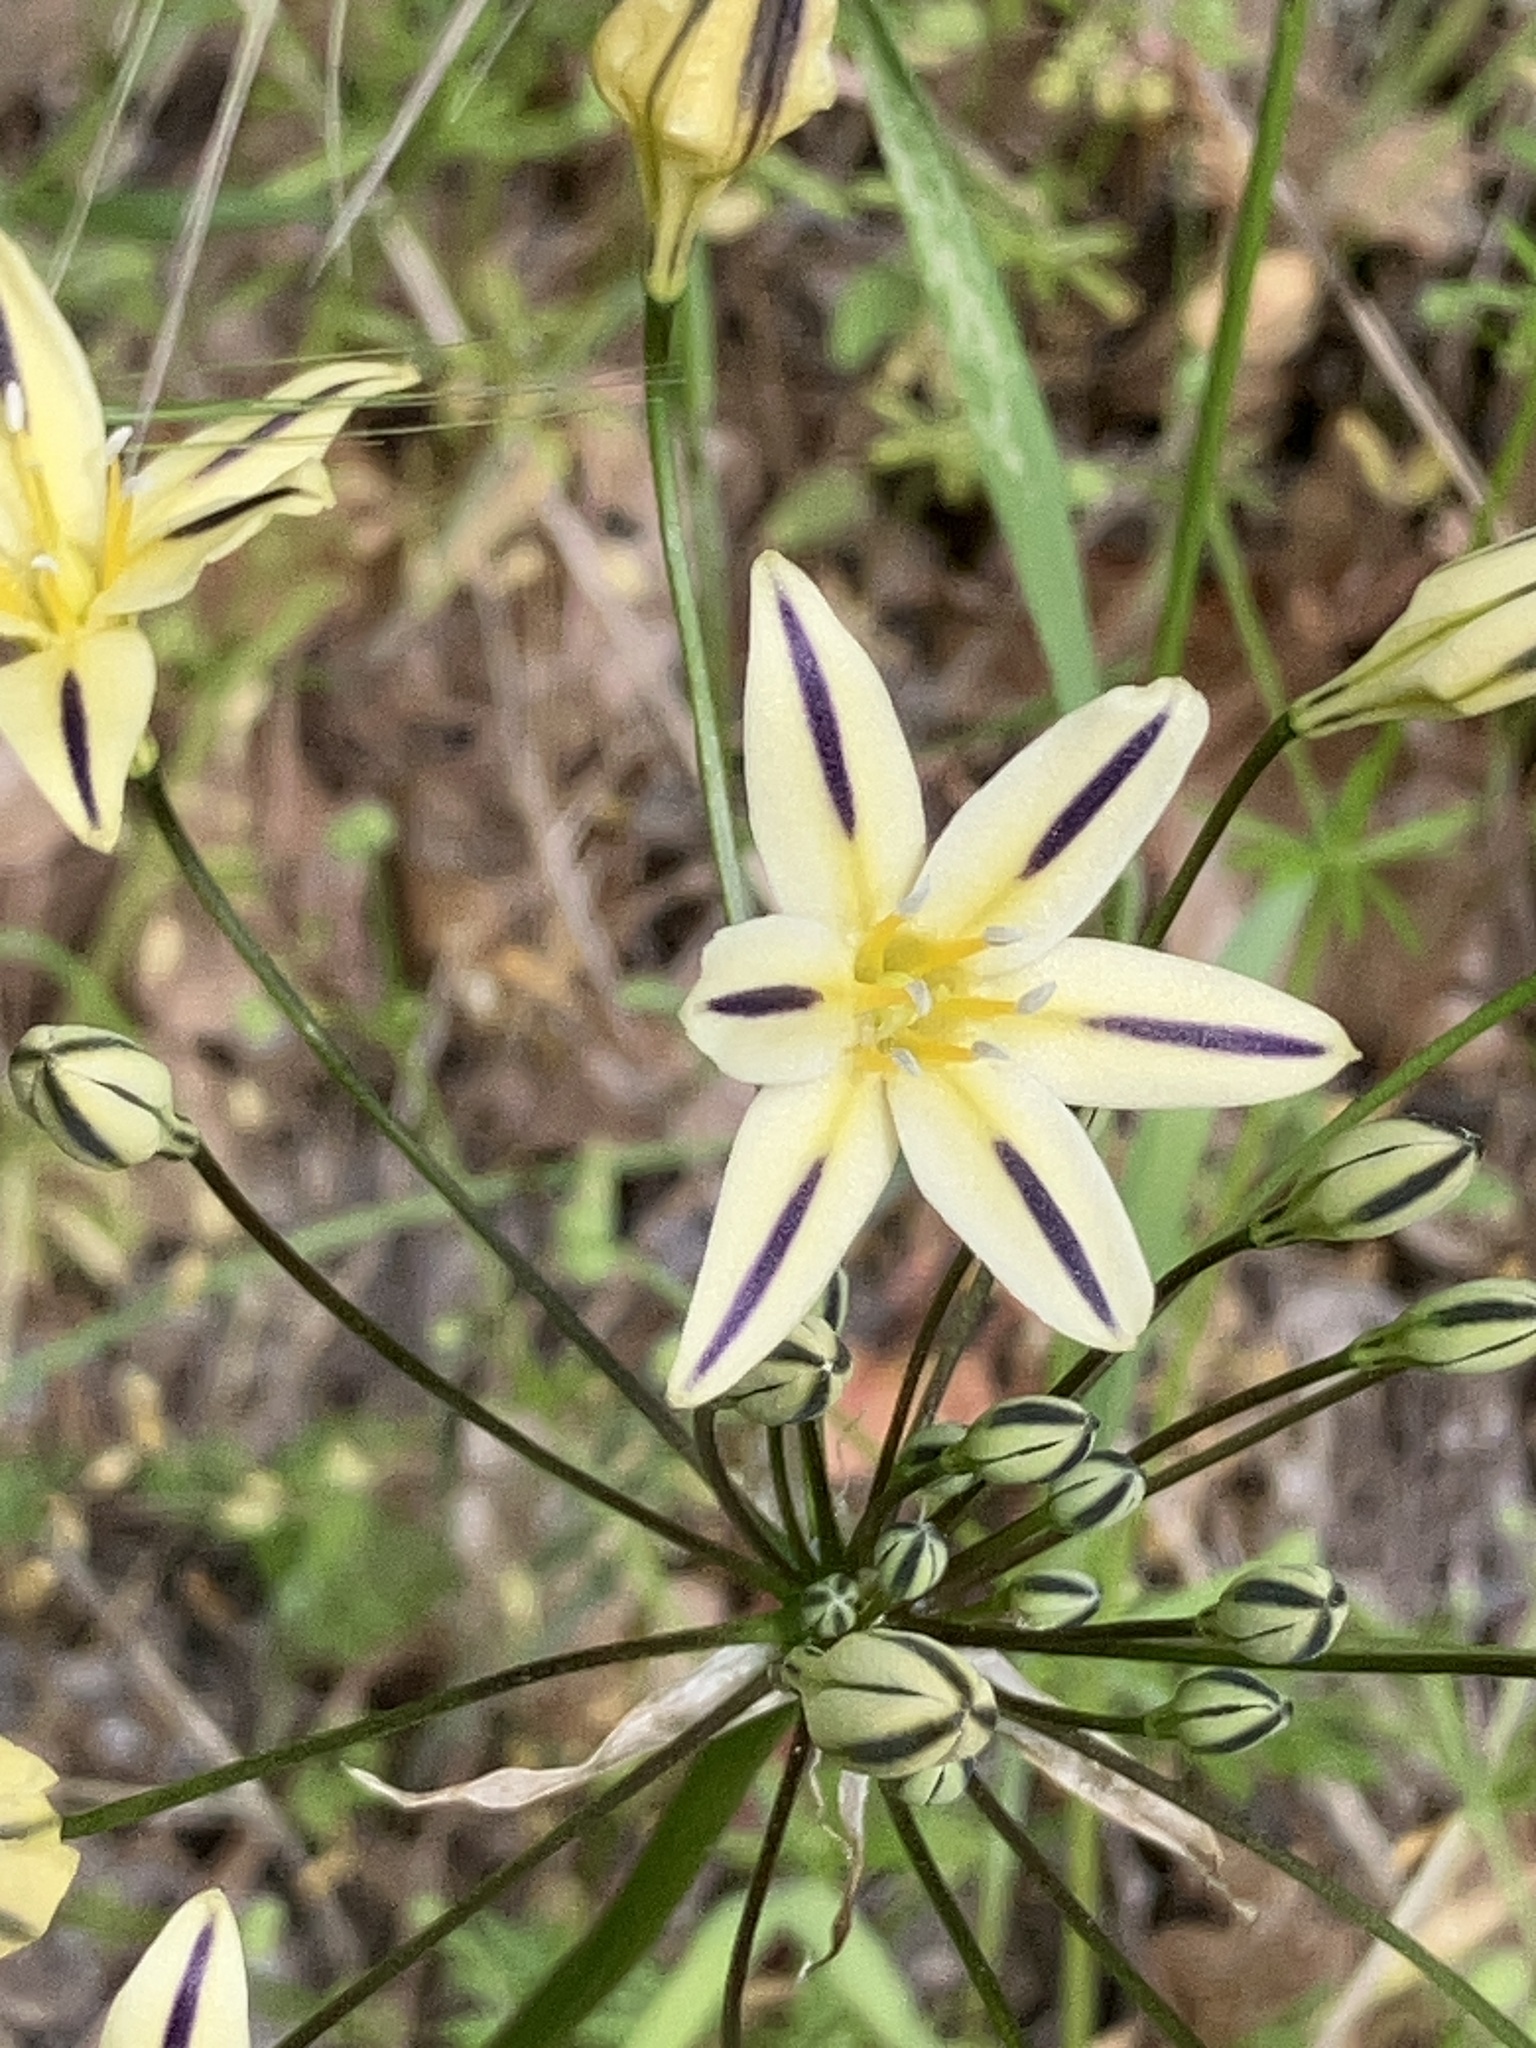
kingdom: Plantae
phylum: Tracheophyta
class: Liliopsida
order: Asparagales
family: Asparagaceae
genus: Triteleia
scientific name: Triteleia hendersonii
